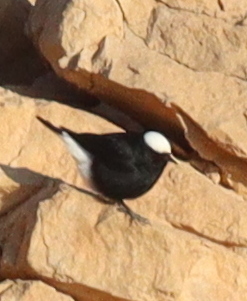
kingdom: Animalia
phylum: Chordata
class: Aves
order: Passeriformes
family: Muscicapidae
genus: Oenanthe
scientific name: Oenanthe leucopyga
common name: White-crowned wheatear
